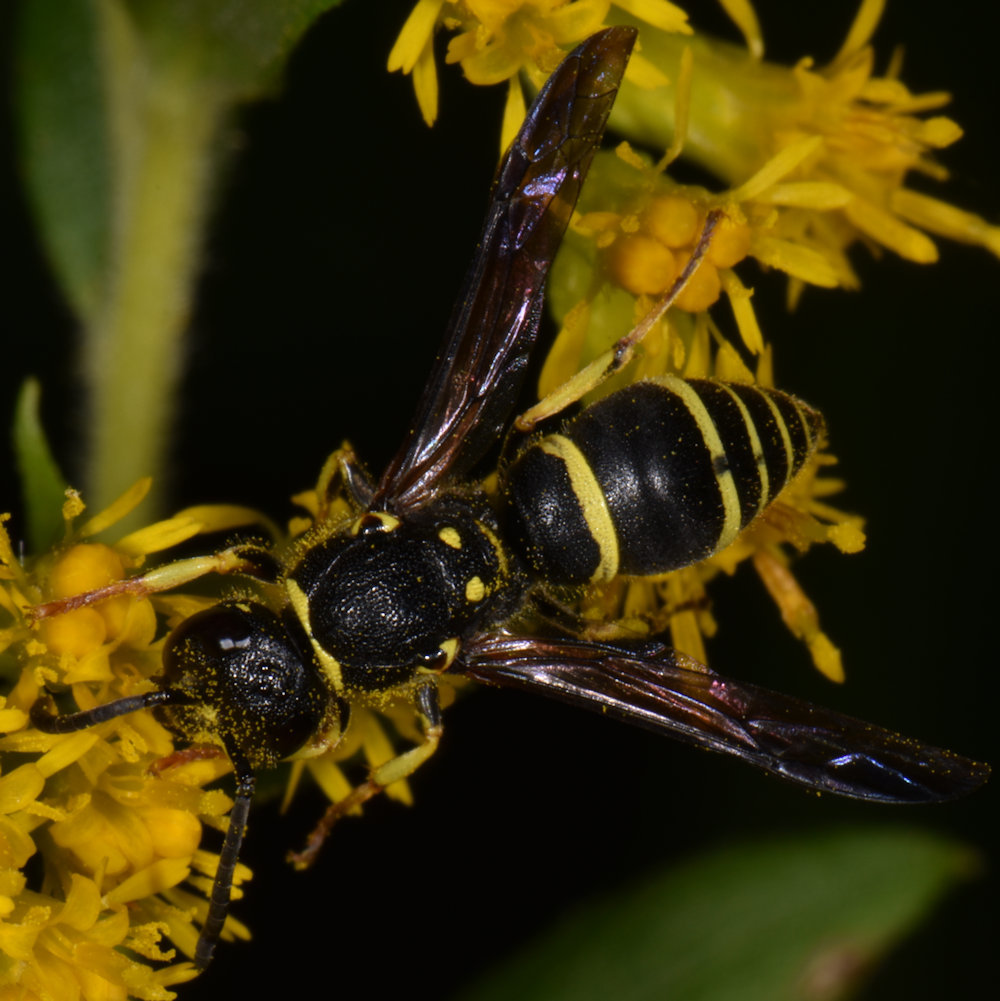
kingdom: Animalia
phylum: Arthropoda
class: Insecta
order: Hymenoptera
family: Vespidae
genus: Ancistrocerus
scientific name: Ancistrocerus adiabatus
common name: Bramble mason wasp
